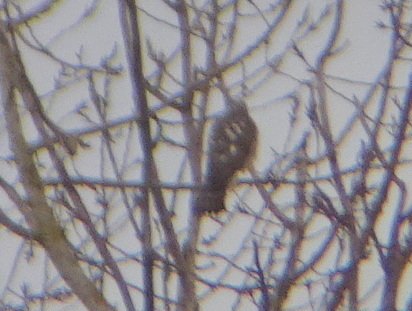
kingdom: Animalia
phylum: Chordata
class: Aves
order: Accipitriformes
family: Accipitridae
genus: Accipiter
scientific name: Accipiter nisus
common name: Eurasian sparrowhawk
